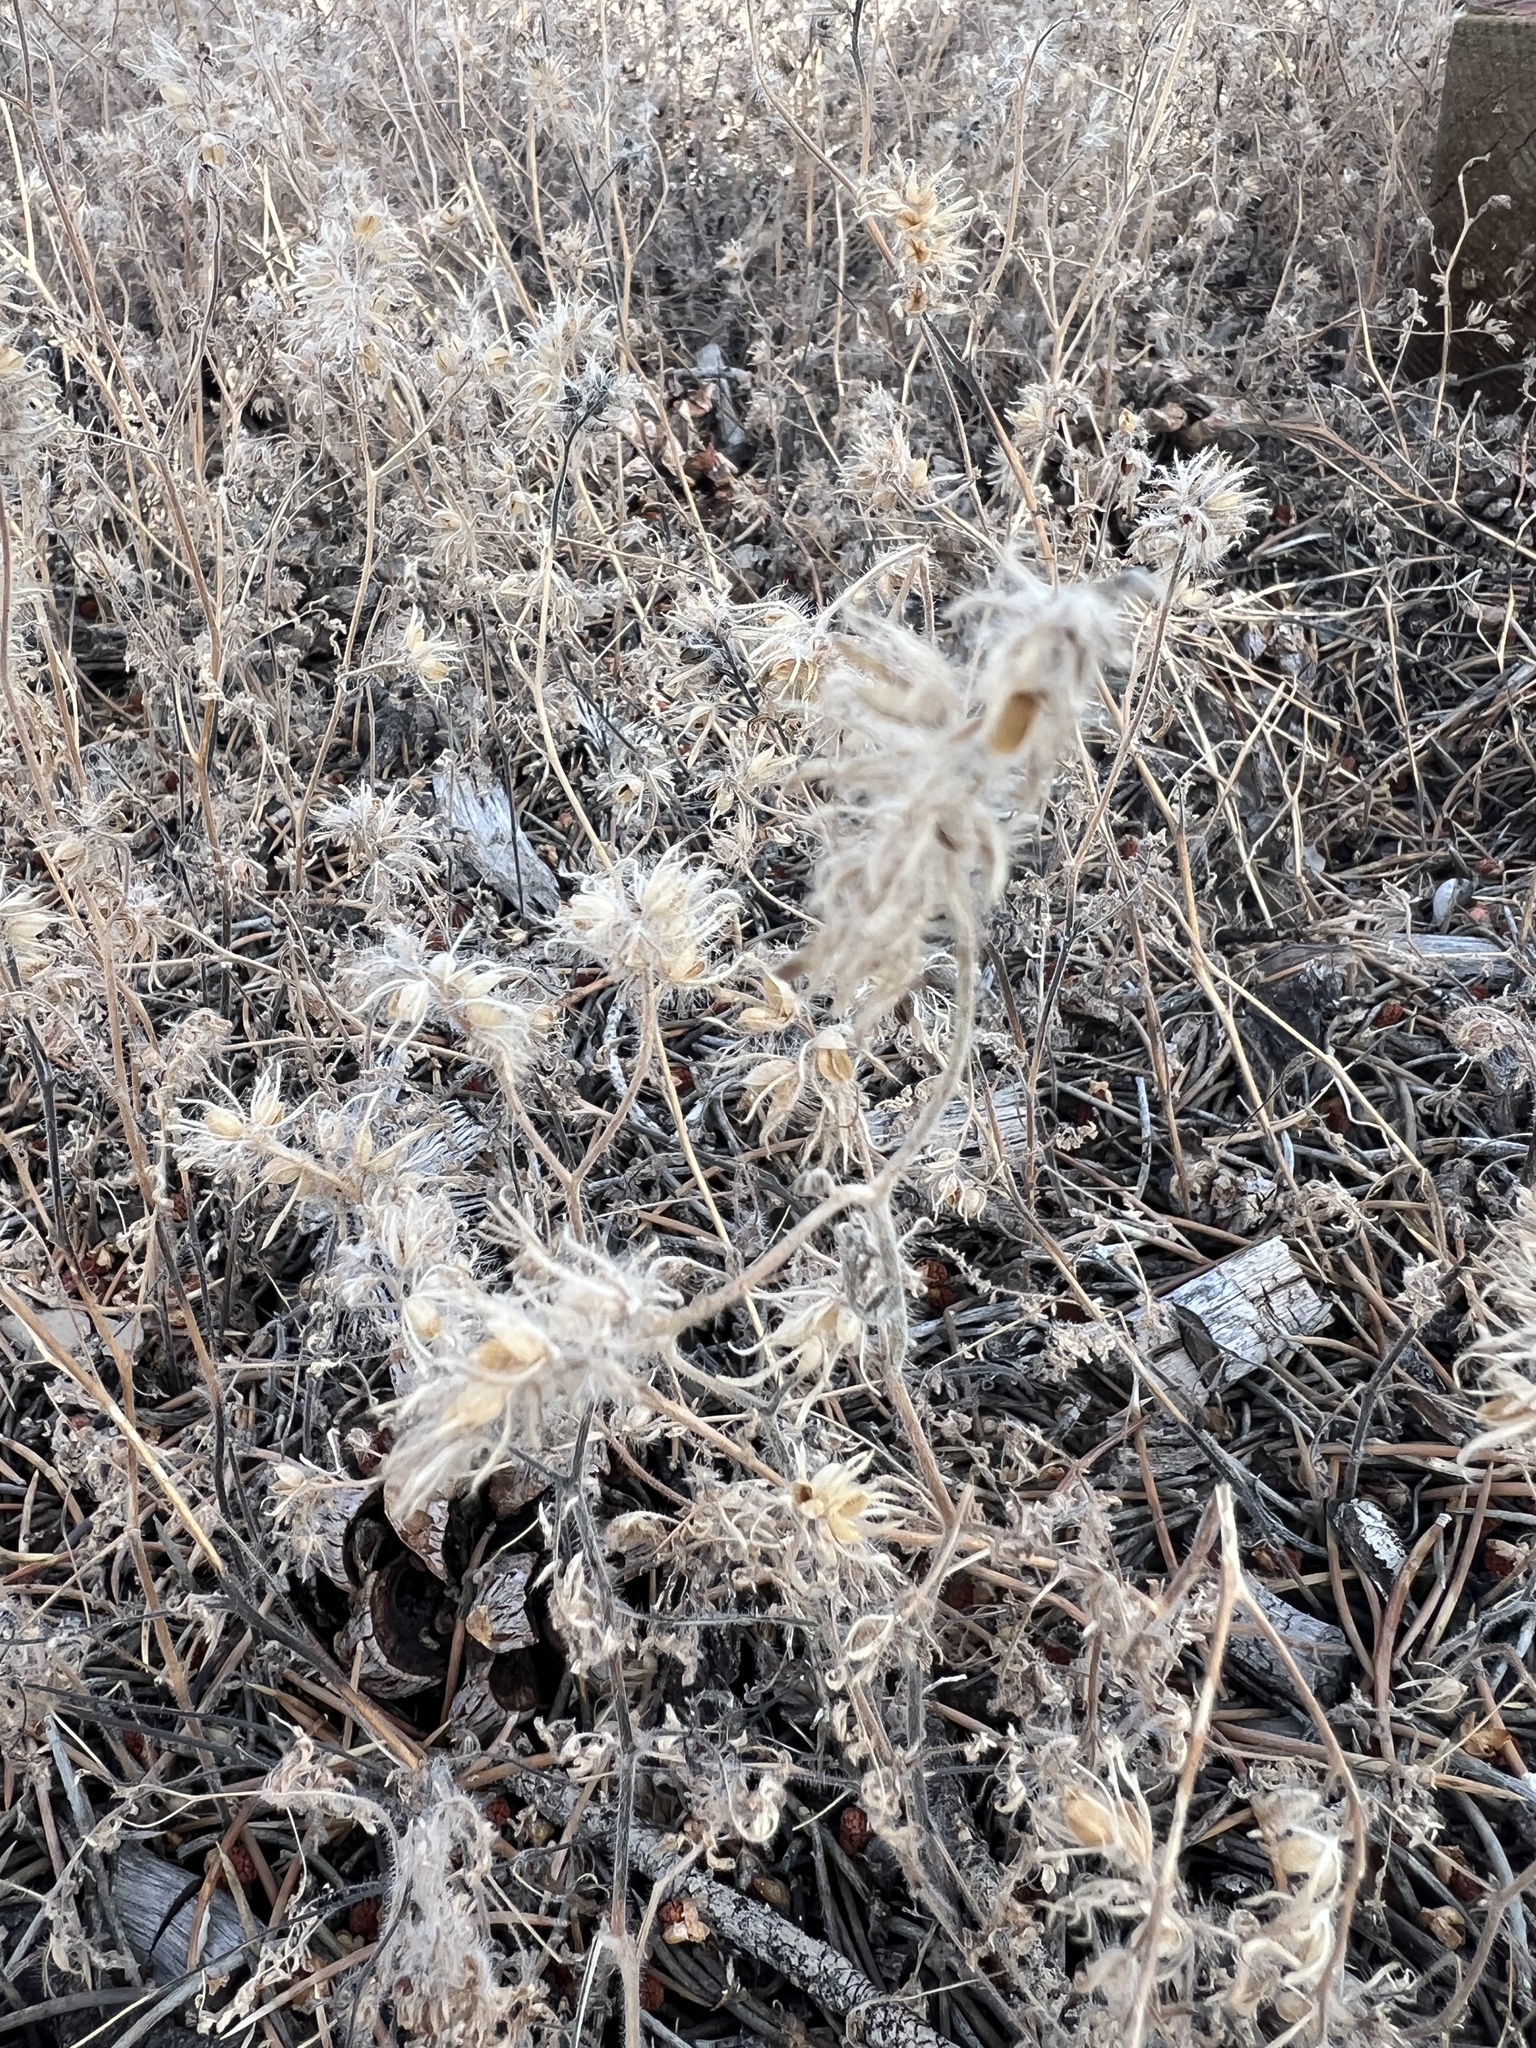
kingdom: Plantae
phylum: Tracheophyta
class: Magnoliopsida
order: Boraginales
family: Hydrophyllaceae
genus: Phacelia
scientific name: Phacelia vallis-mortae
